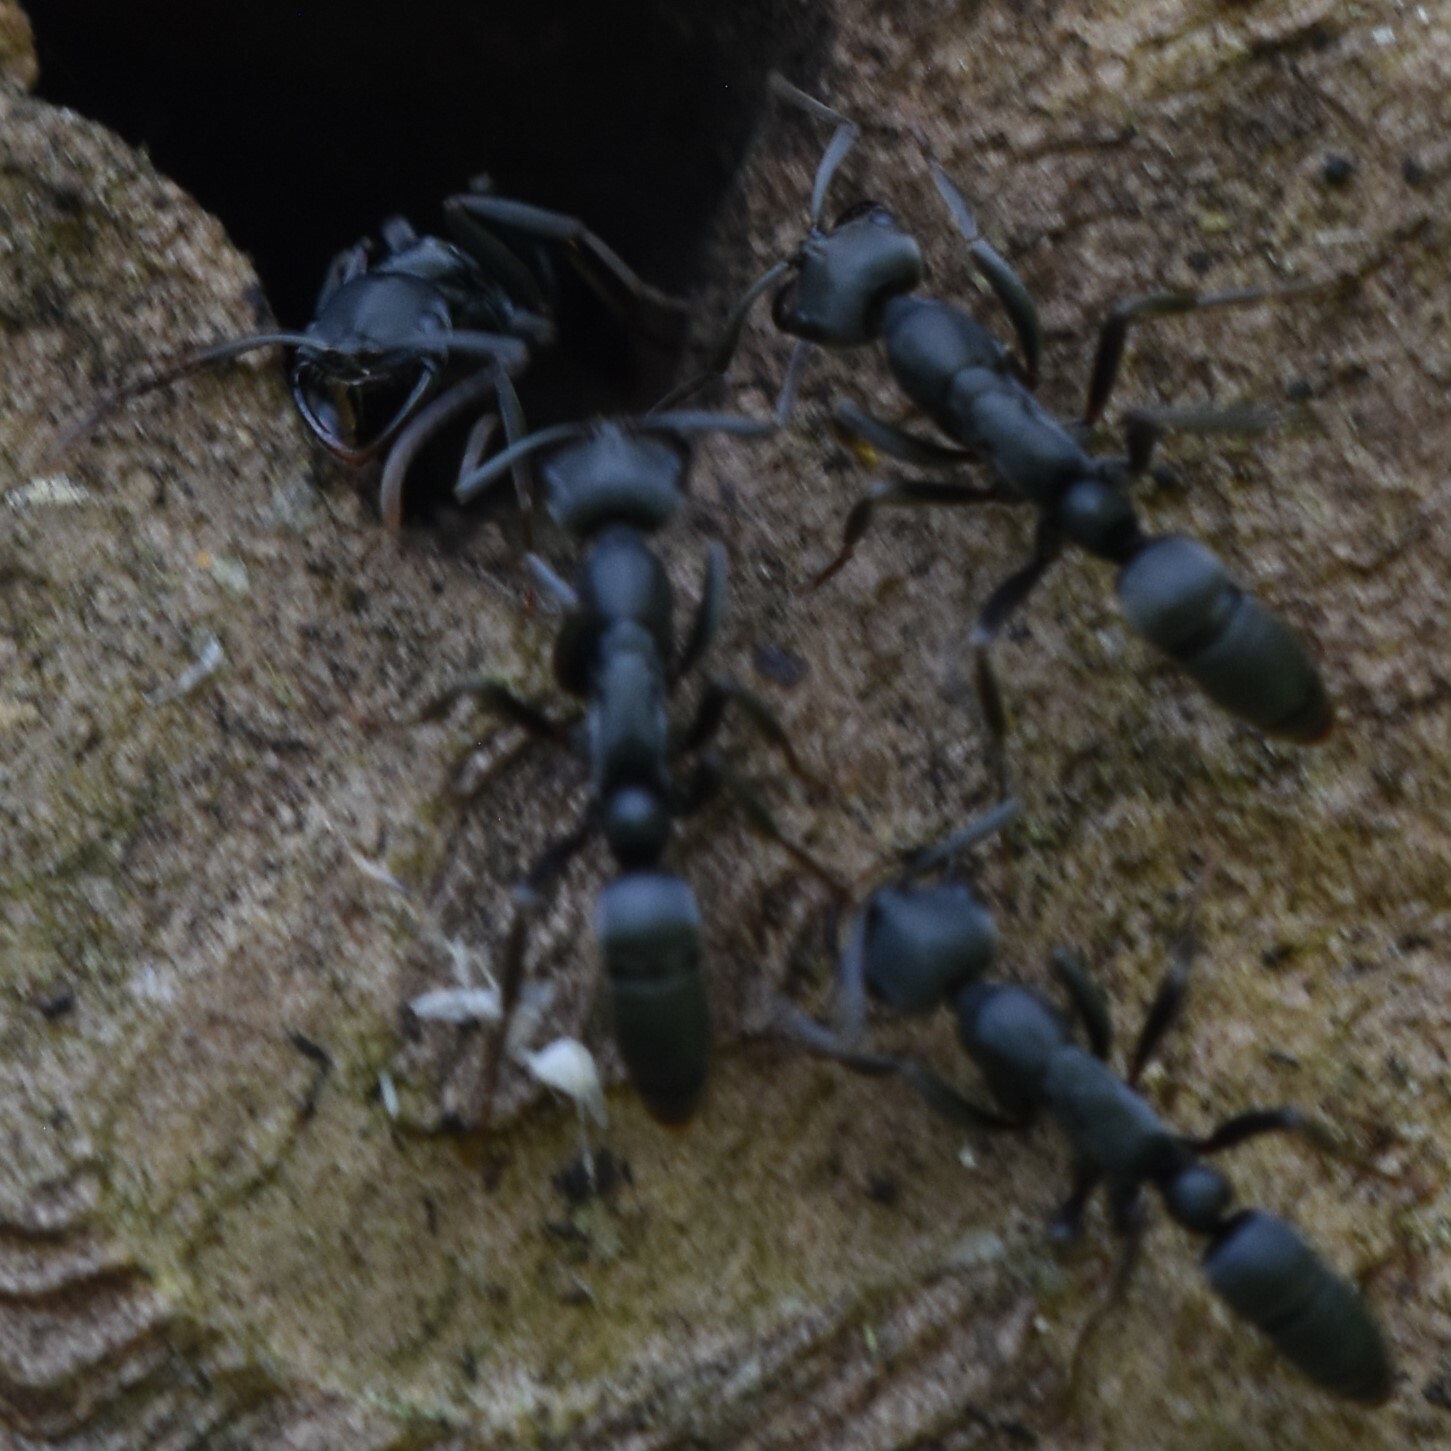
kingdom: Animalia
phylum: Arthropoda
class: Insecta
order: Hymenoptera
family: Formicidae
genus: Leptogenys
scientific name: Leptogenys falcigera
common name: Ant
